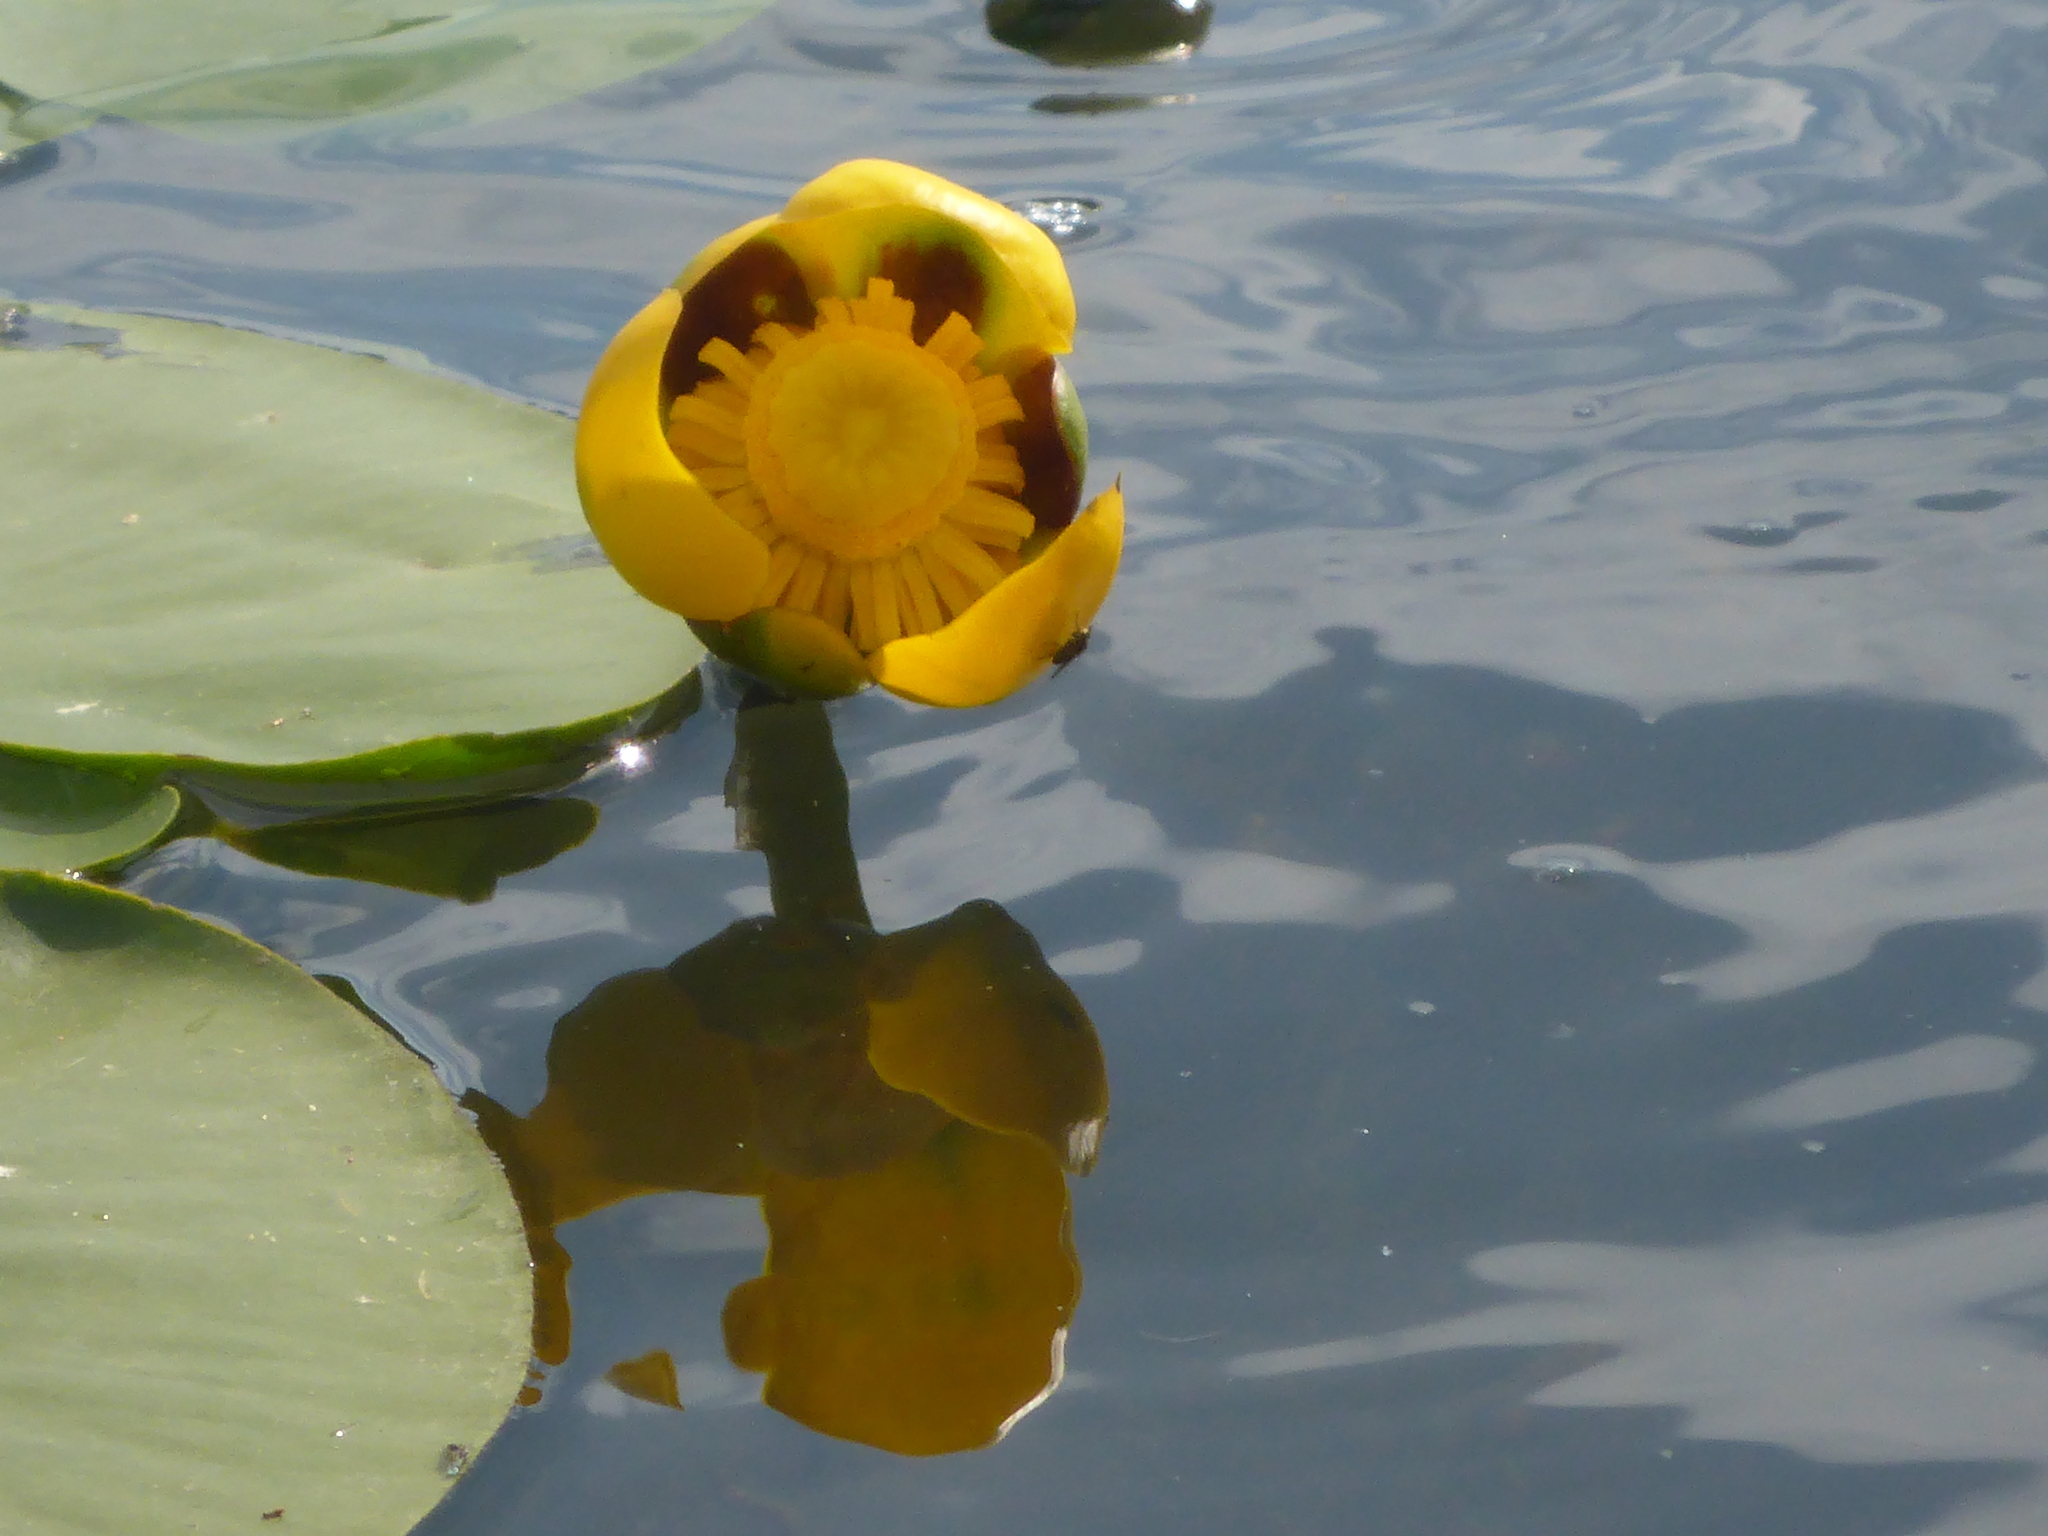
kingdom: Plantae
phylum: Tracheophyta
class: Magnoliopsida
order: Nymphaeales
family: Nymphaeaceae
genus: Nuphar
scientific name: Nuphar variegata
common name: Beaver-root
